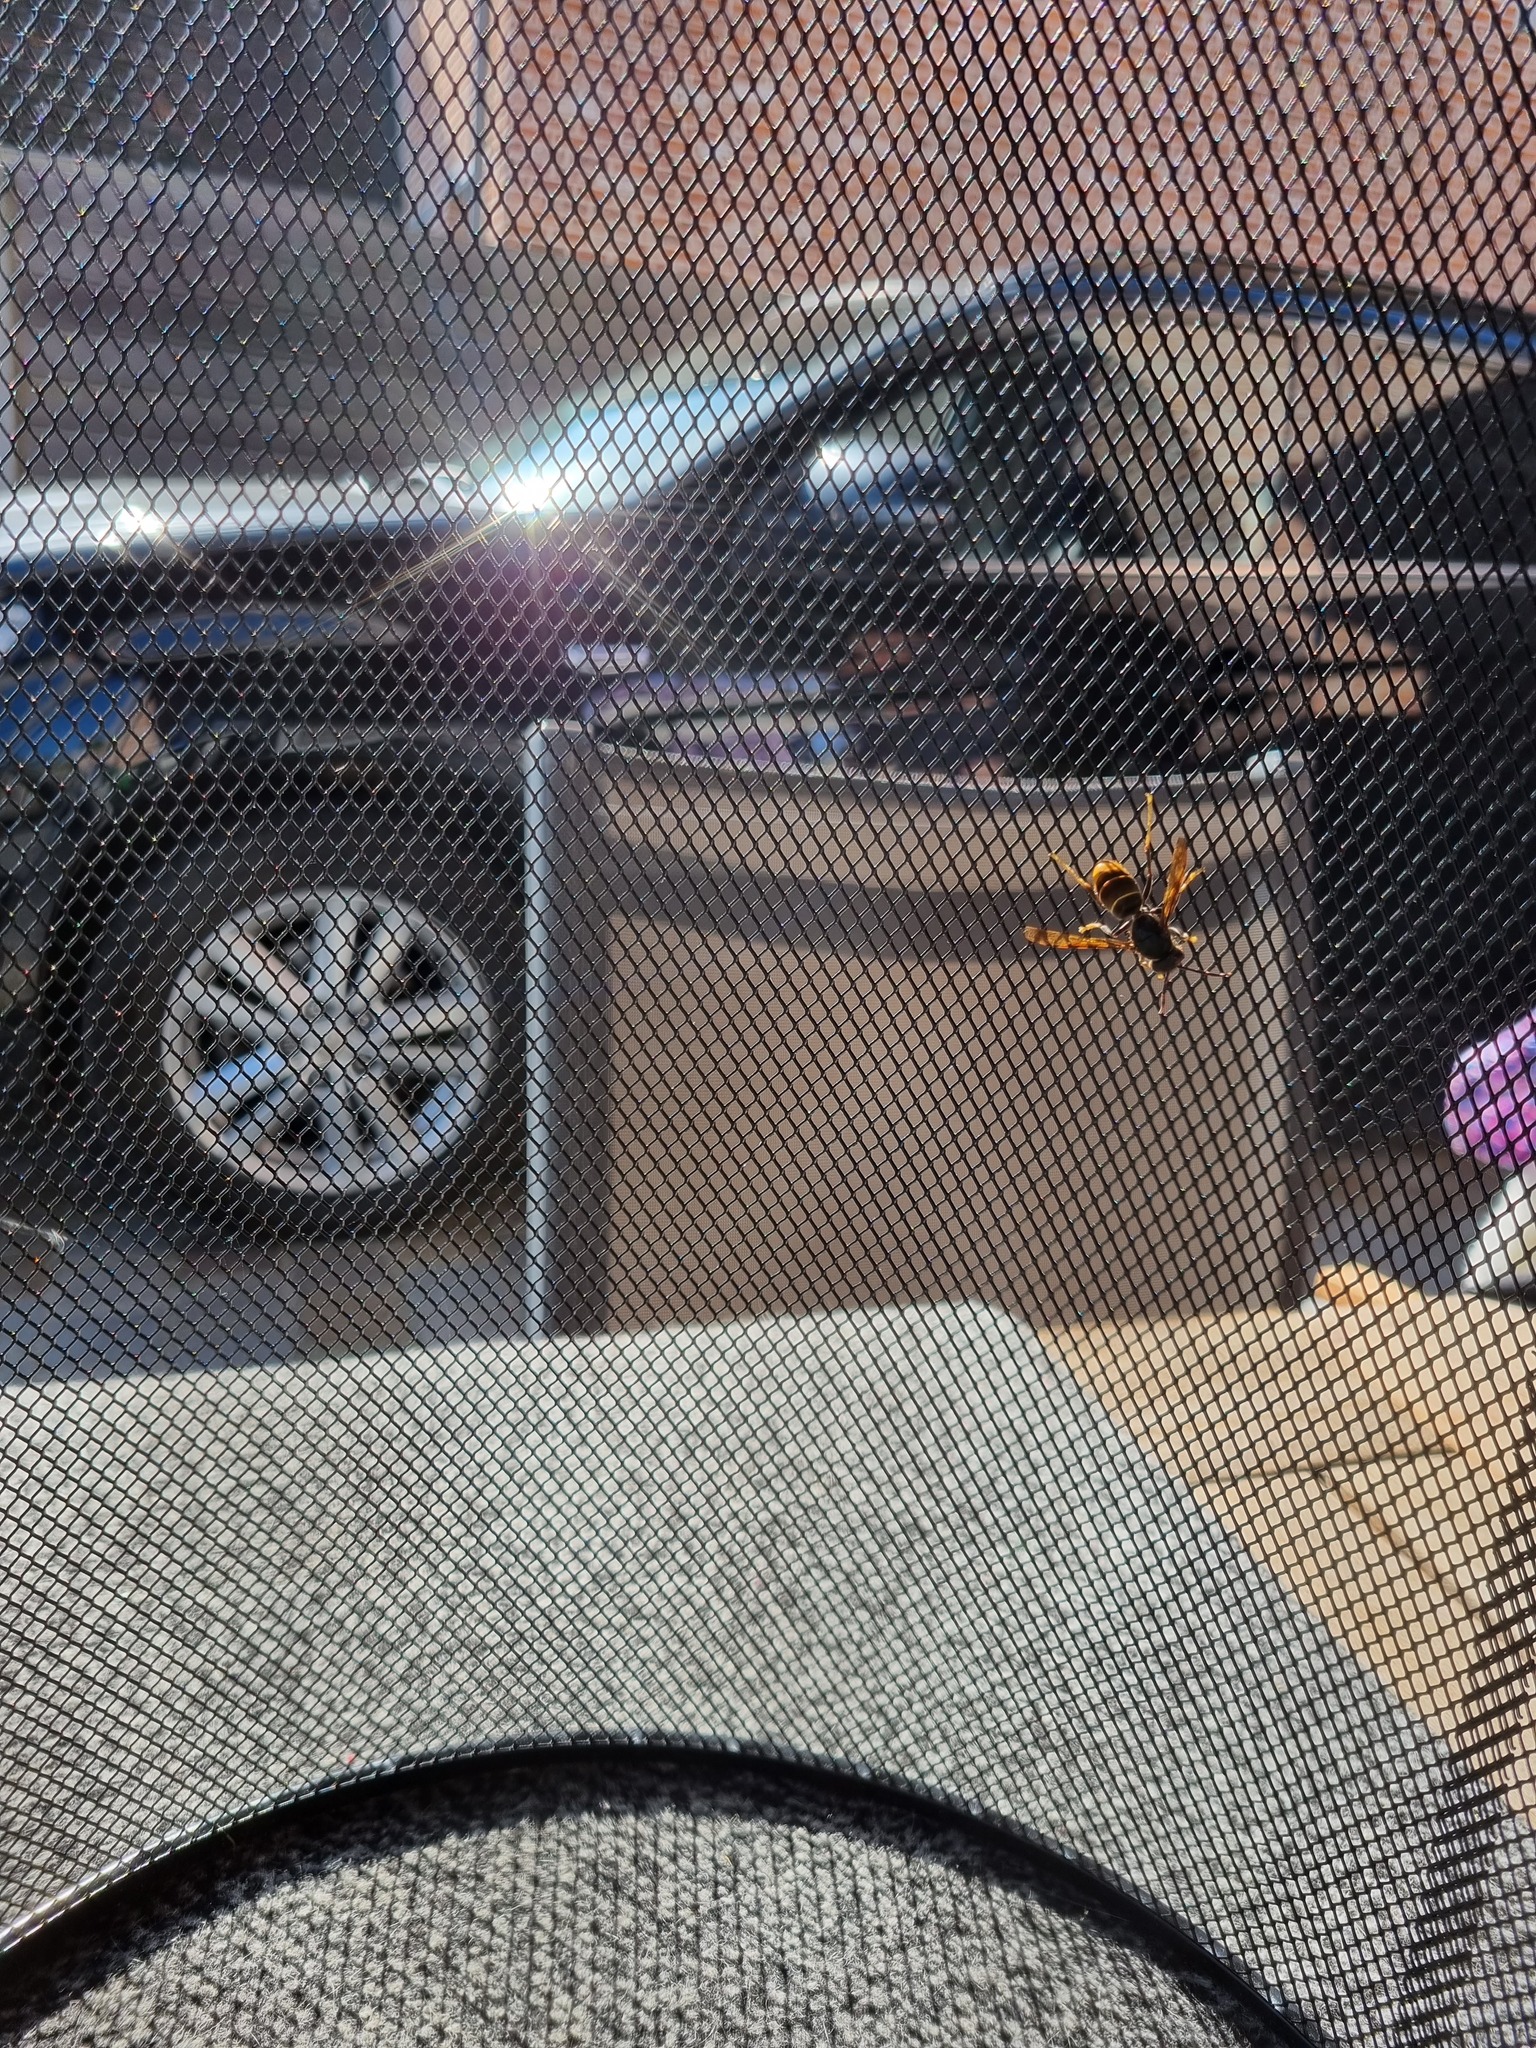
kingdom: Animalia
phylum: Arthropoda
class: Insecta
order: Hymenoptera
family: Vespidae
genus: Vespa
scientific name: Vespa velutina
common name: Asian hornet
